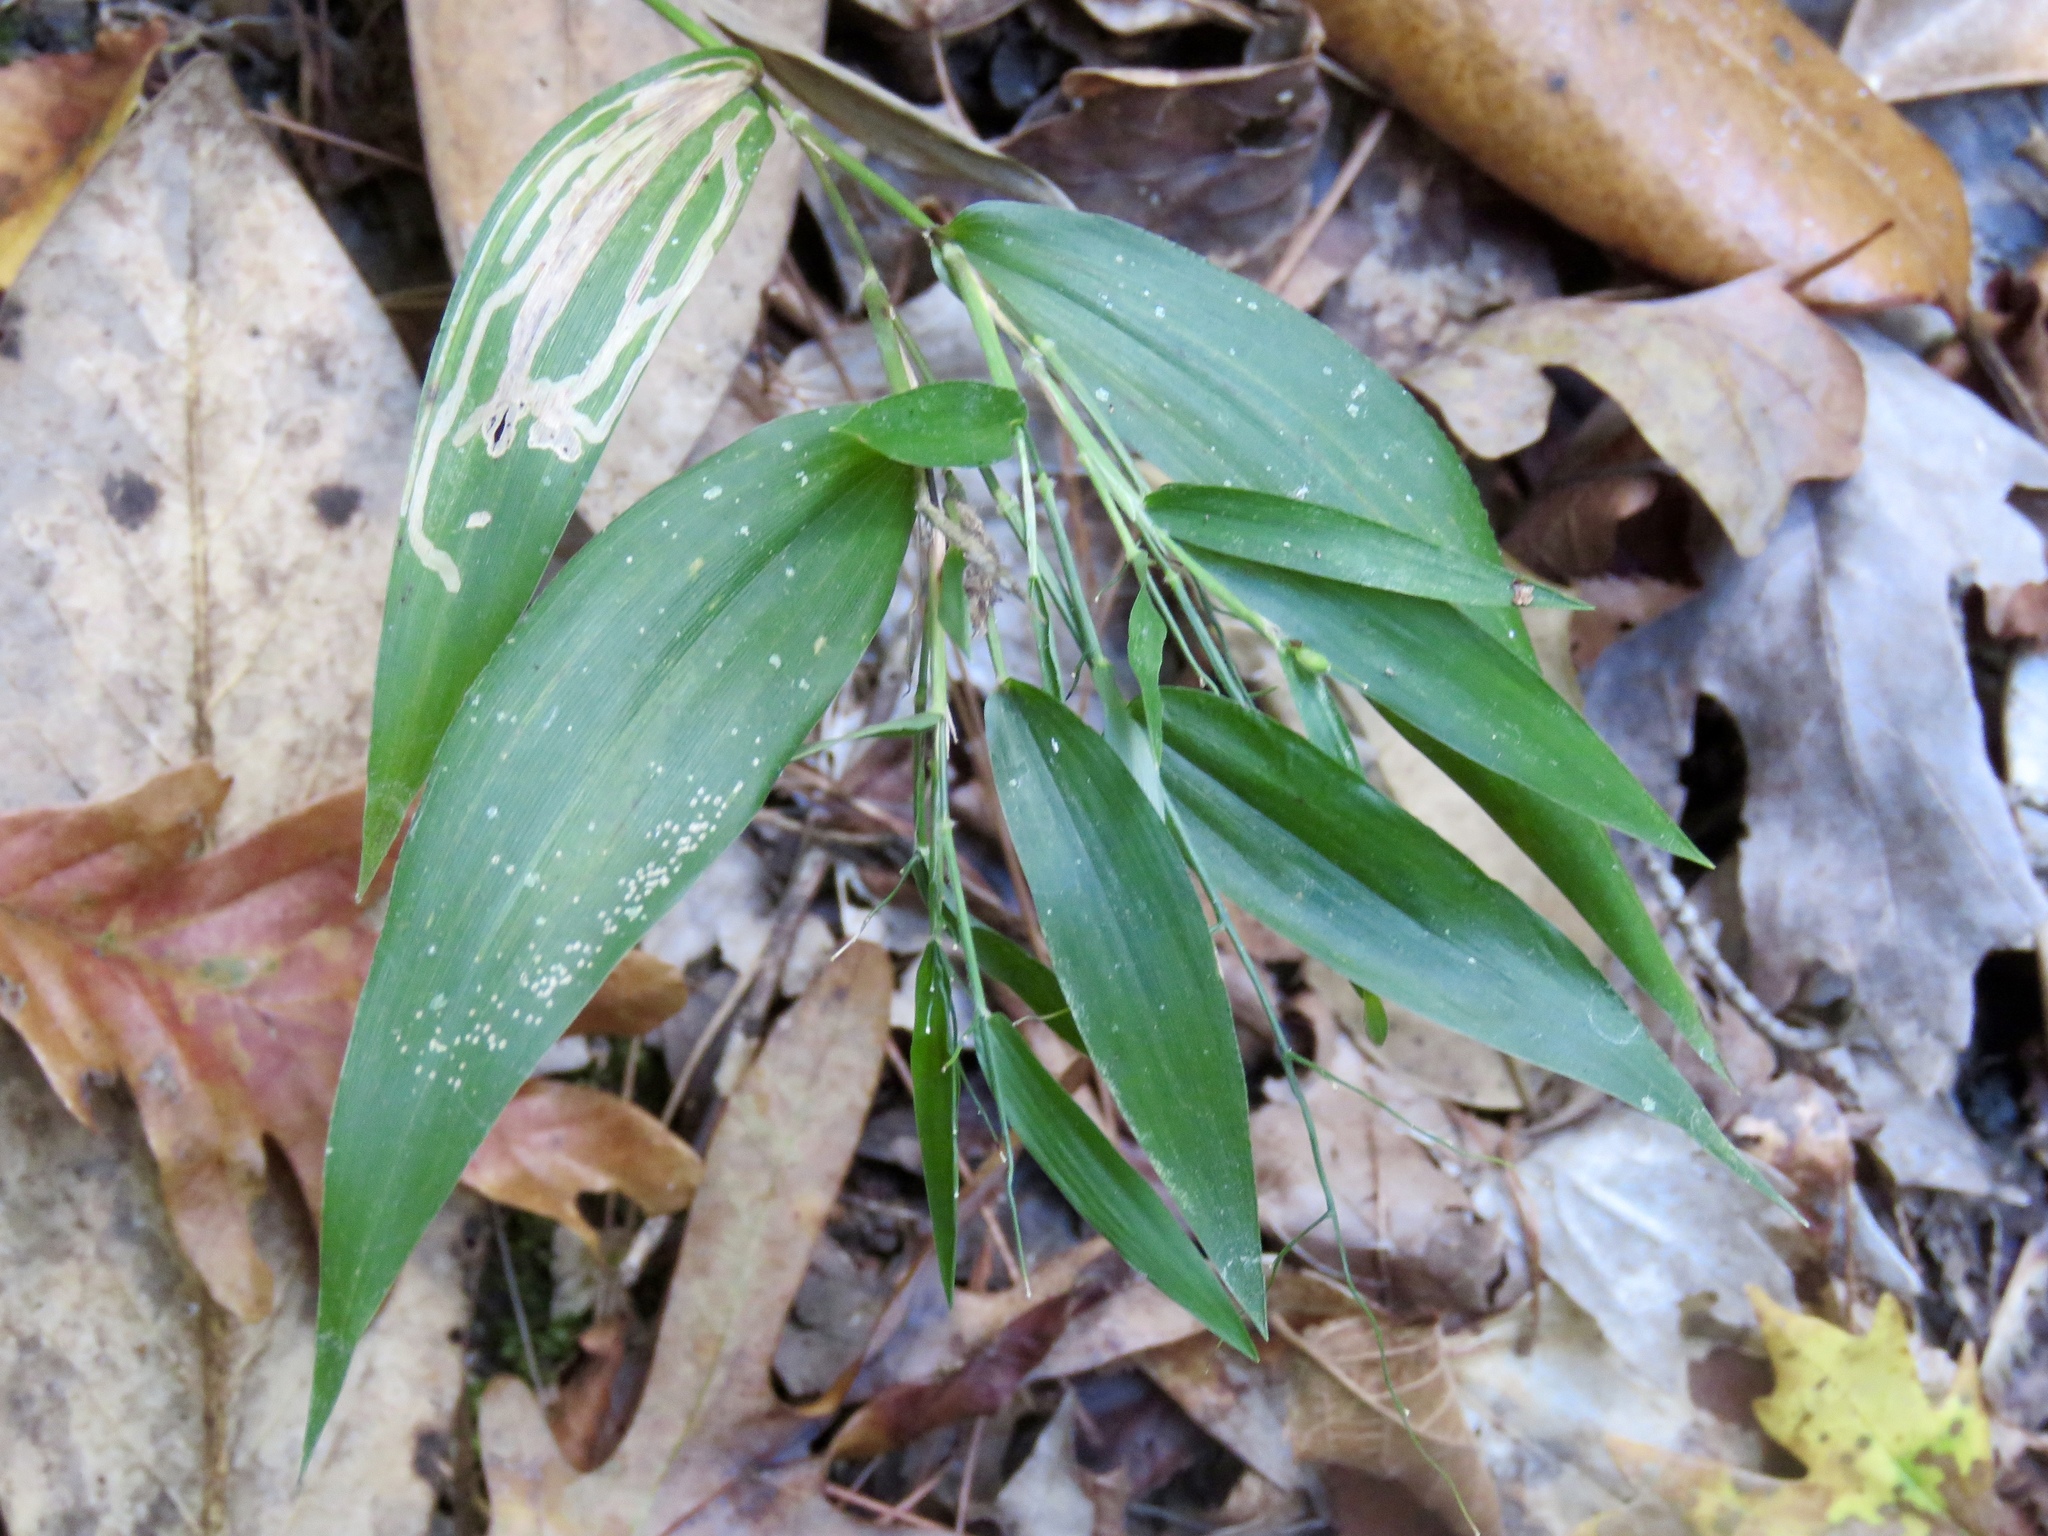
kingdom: Plantae
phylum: Tracheophyta
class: Liliopsida
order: Poales
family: Poaceae
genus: Dichanthelium
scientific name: Dichanthelium boscii
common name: Bosc's panic grass
